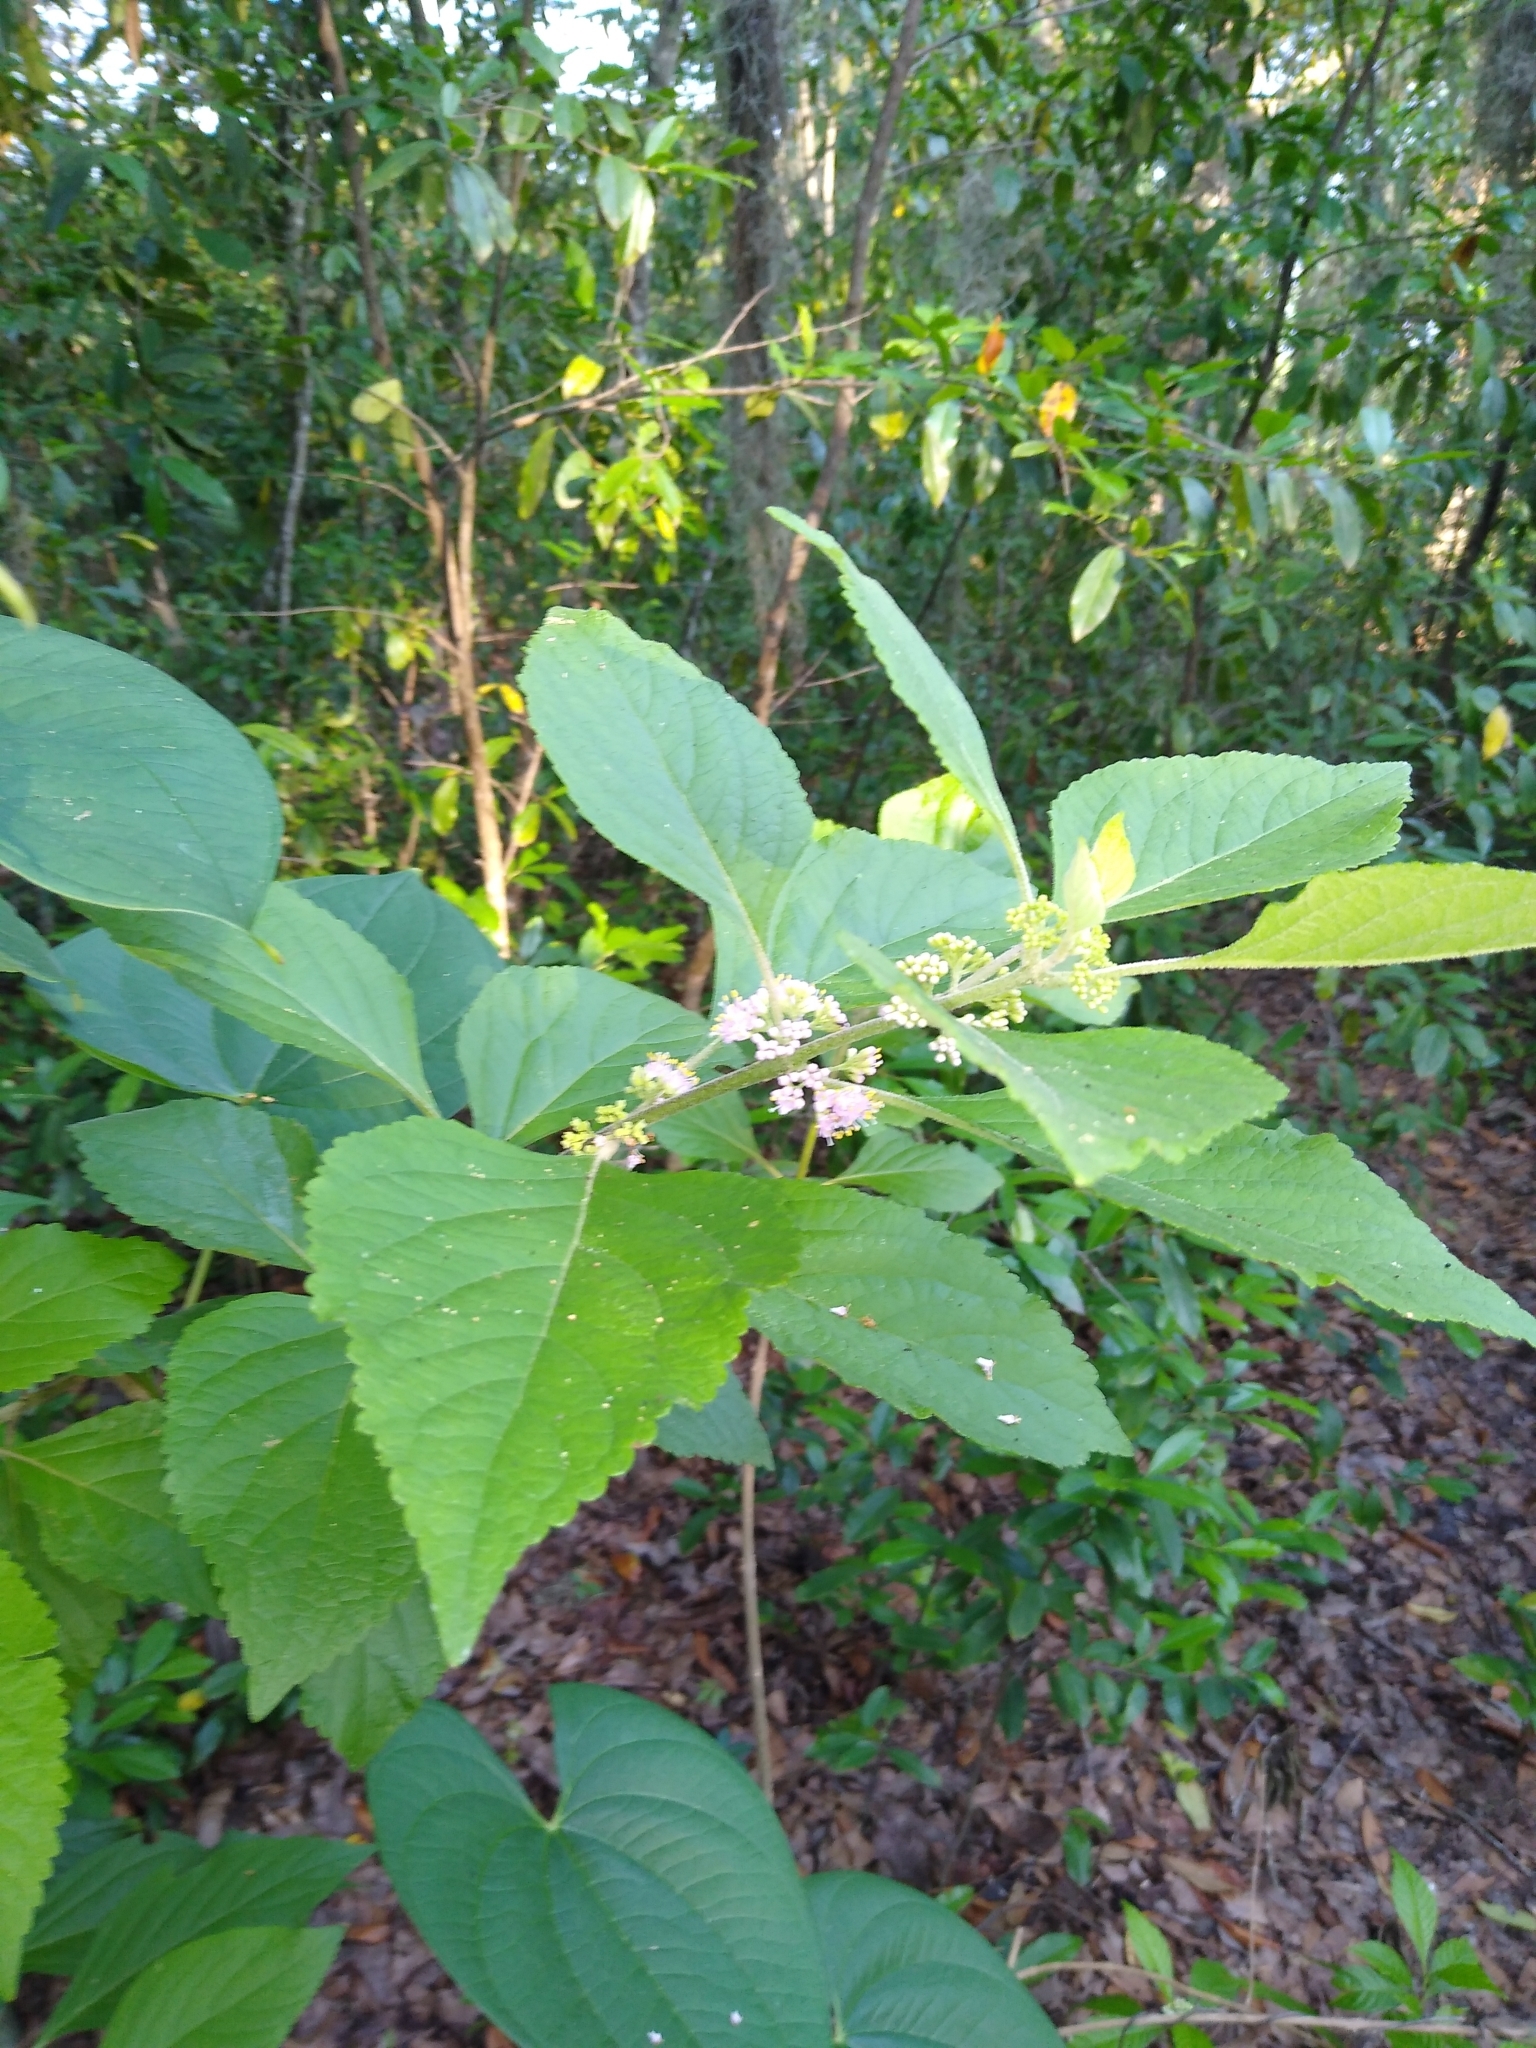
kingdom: Plantae
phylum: Tracheophyta
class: Magnoliopsida
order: Lamiales
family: Lamiaceae
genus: Callicarpa
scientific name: Callicarpa americana
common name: American beautyberry
